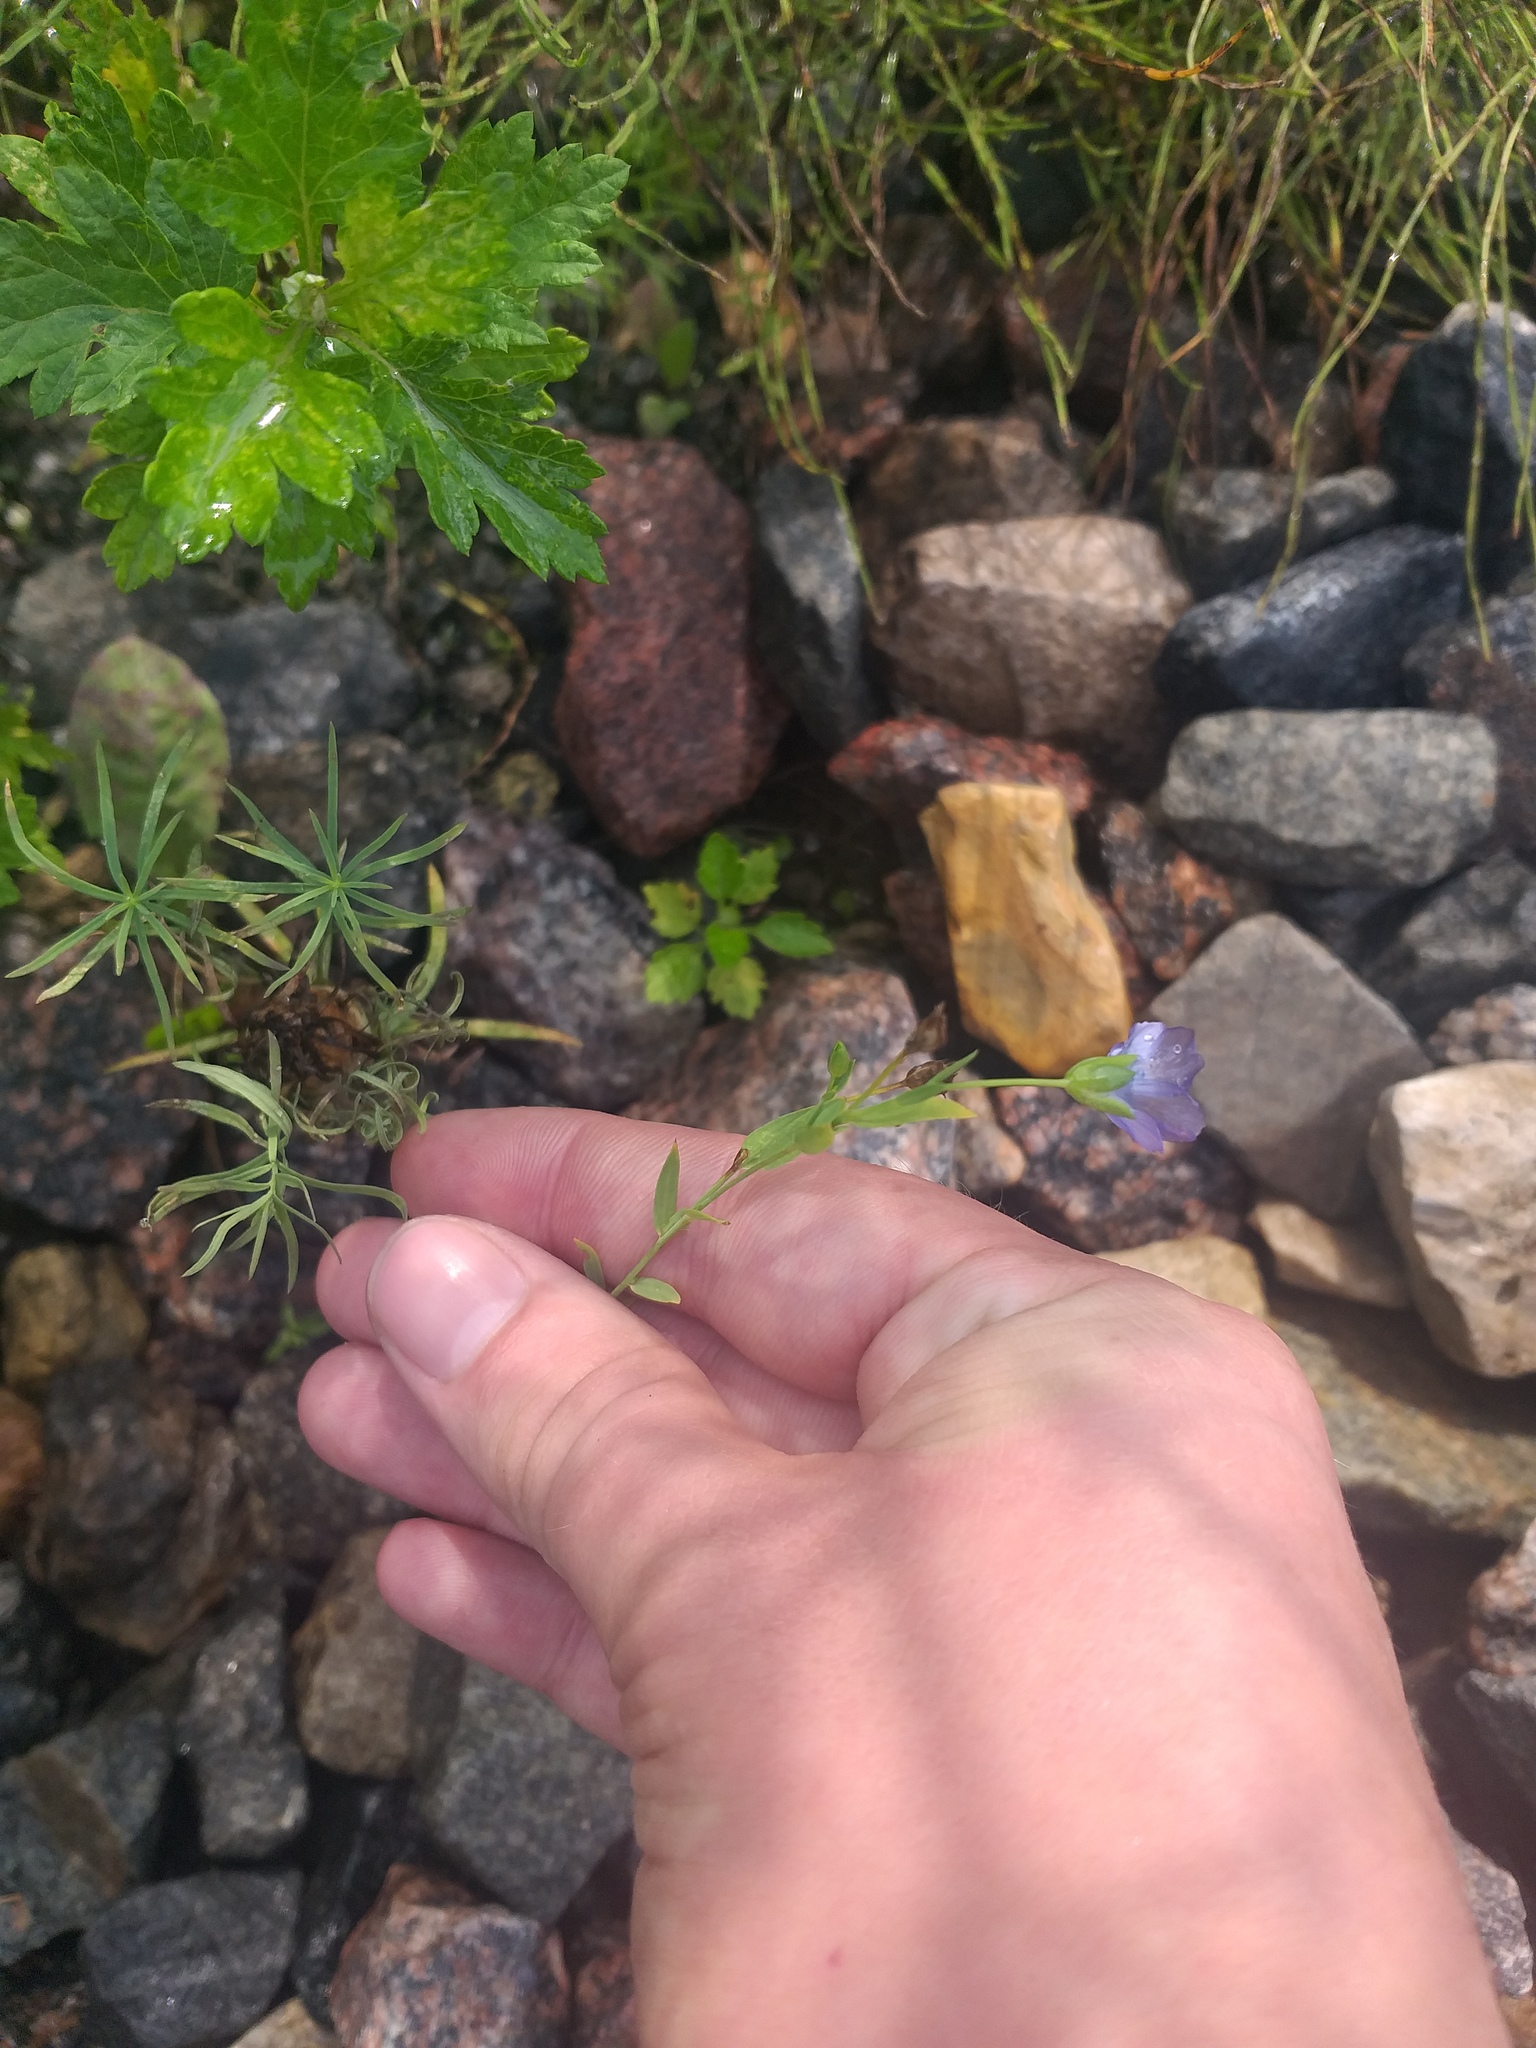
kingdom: Plantae
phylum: Tracheophyta
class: Magnoliopsida
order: Malpighiales
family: Linaceae
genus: Linum
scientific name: Linum usitatissimum
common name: Flax
